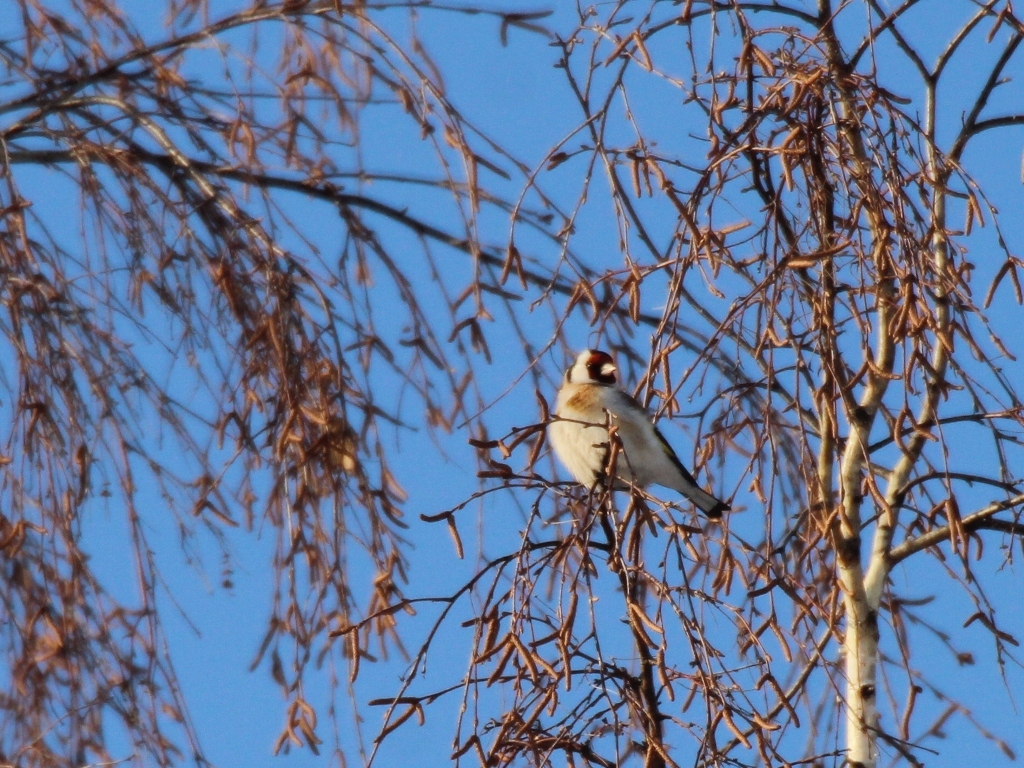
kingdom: Animalia
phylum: Chordata
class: Aves
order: Passeriformes
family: Fringillidae
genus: Carduelis
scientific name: Carduelis carduelis
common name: European goldfinch
